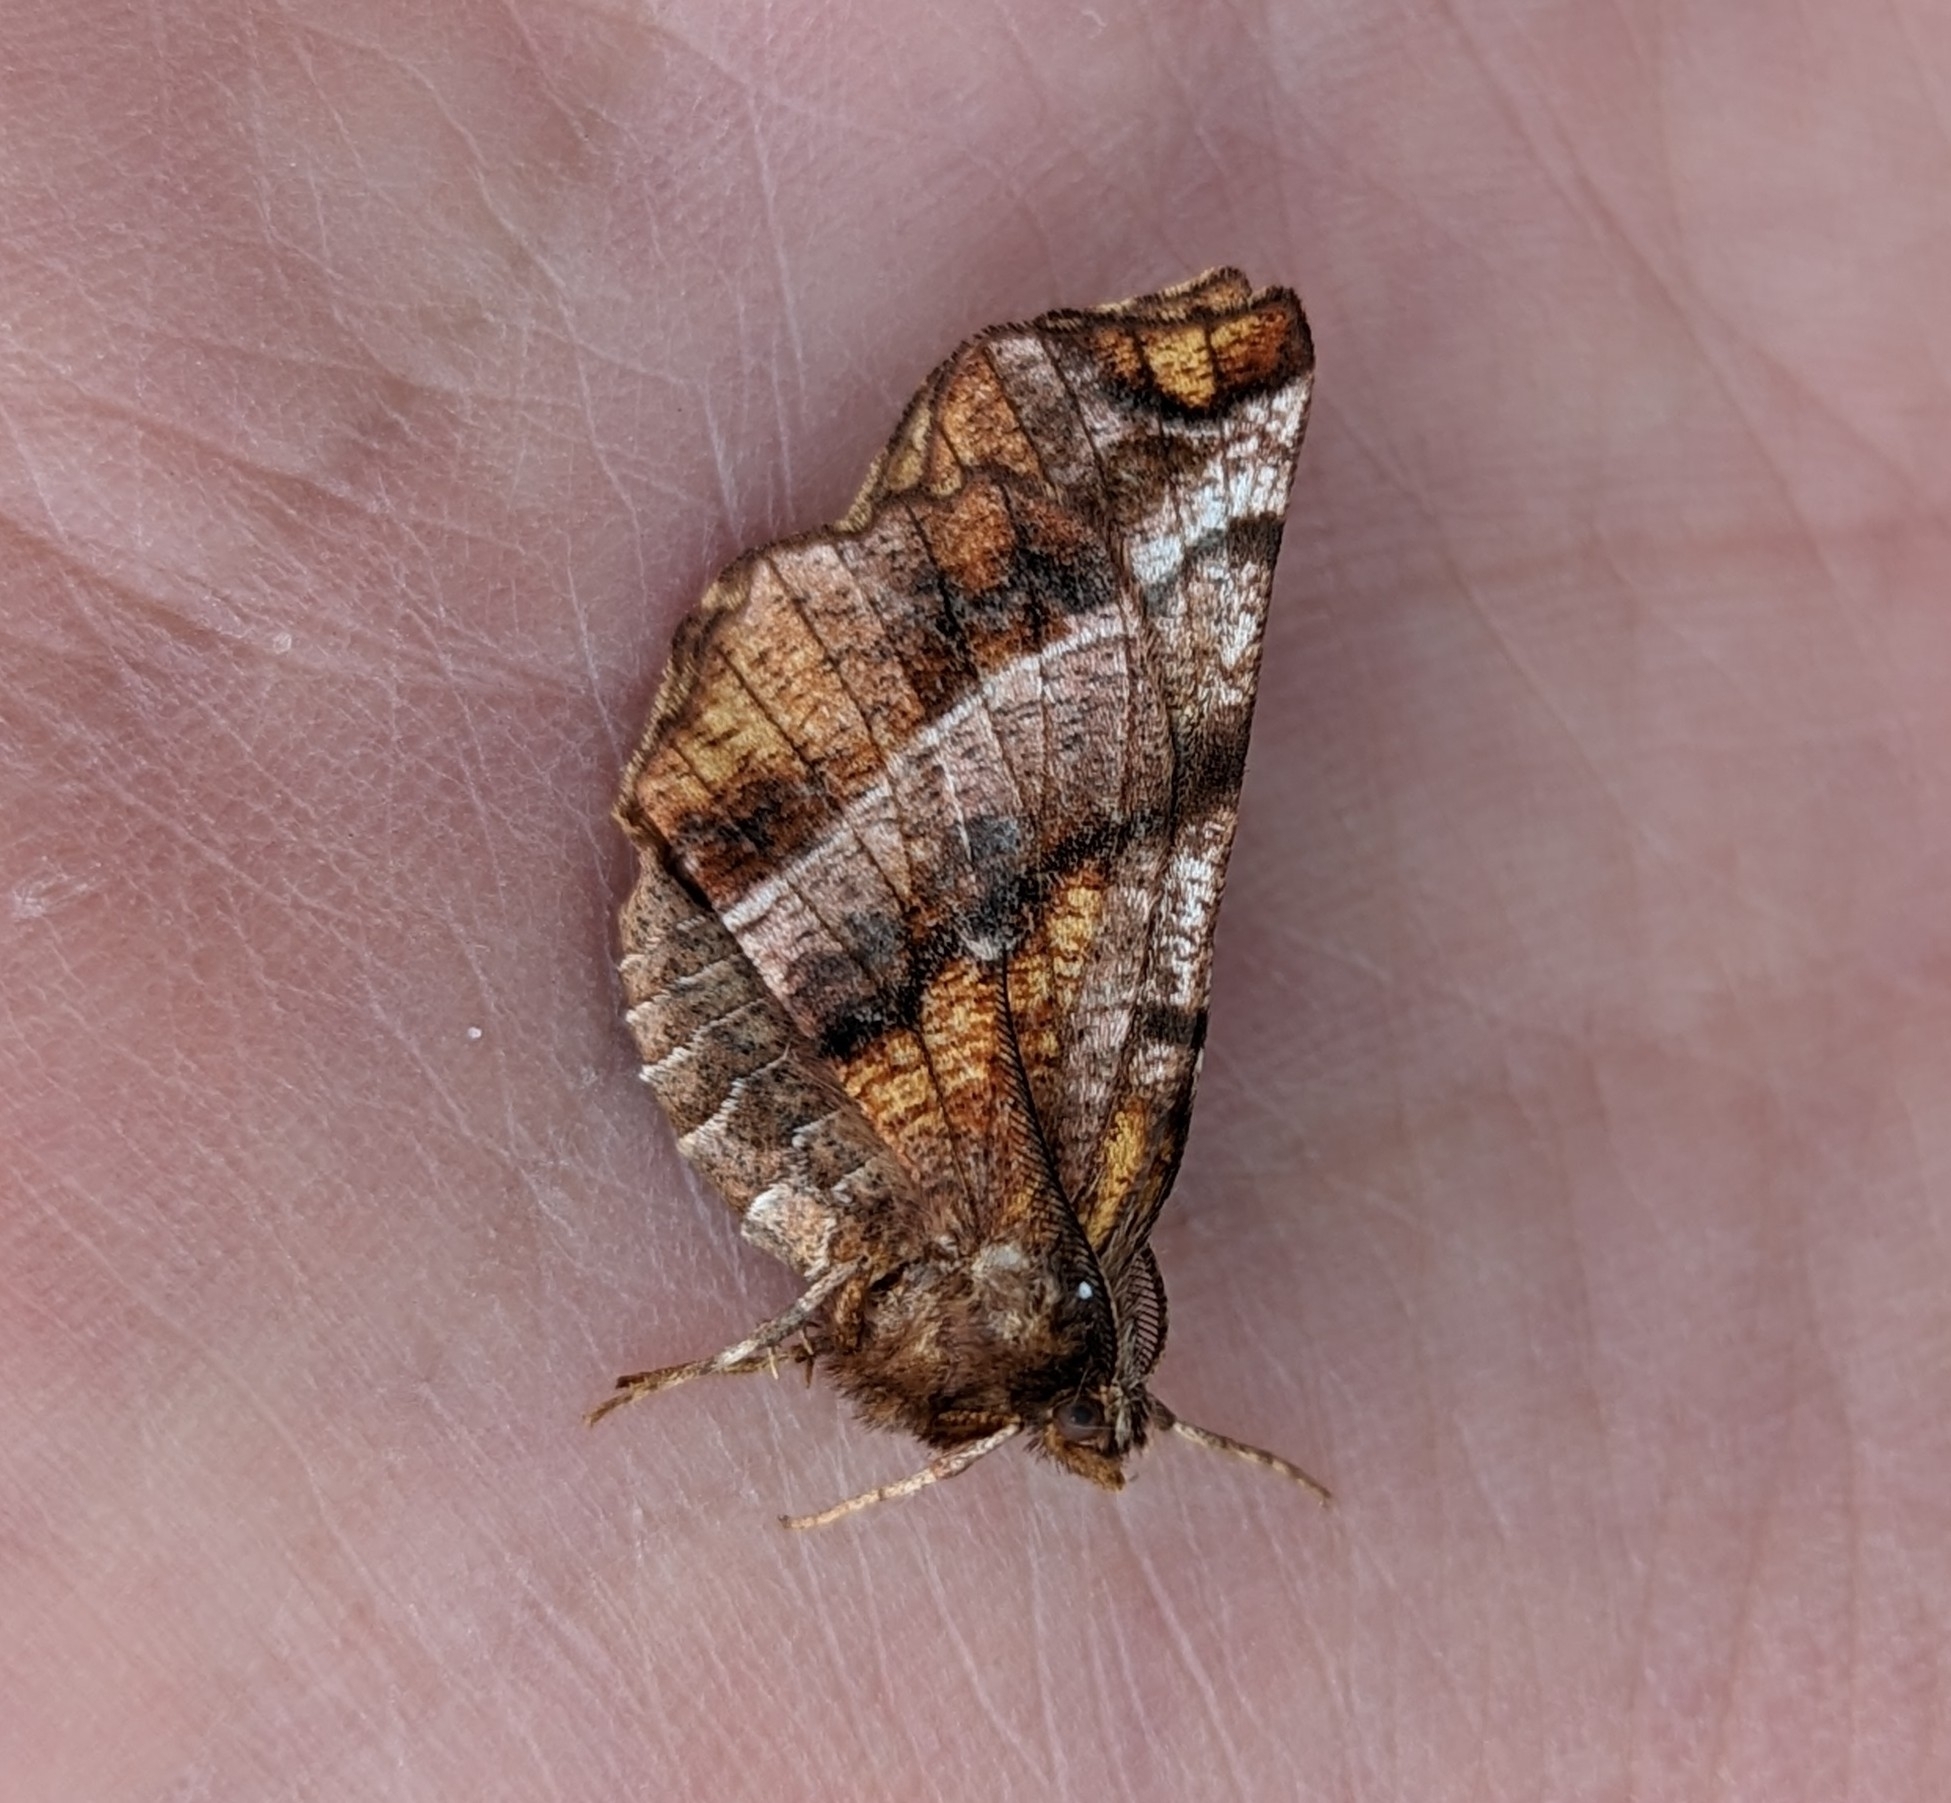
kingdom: Animalia
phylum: Arthropoda
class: Insecta
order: Lepidoptera
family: Geometridae
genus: Selenia
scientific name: Selenia alciphearia
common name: Brown-tipped thorn
